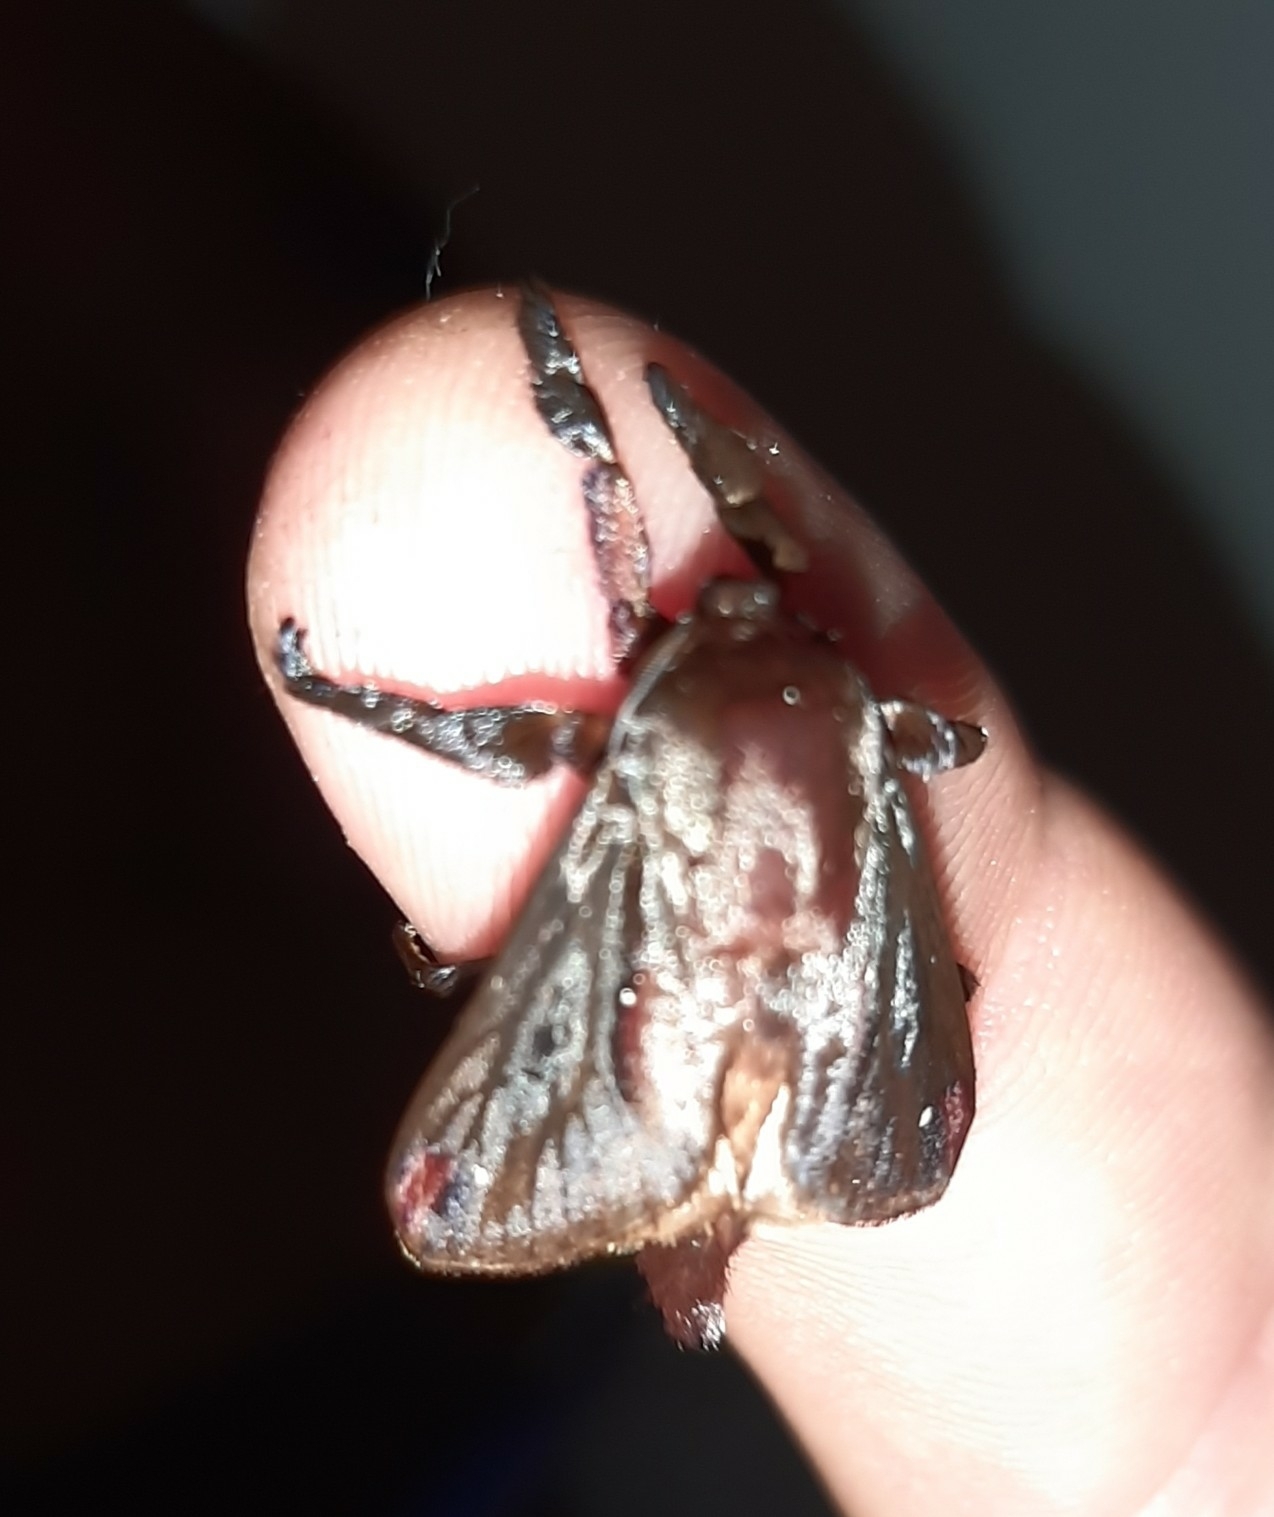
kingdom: Animalia
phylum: Arthropoda
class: Insecta
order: Lepidoptera
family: Limacodidae
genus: Sibine
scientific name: Sibine horrida
